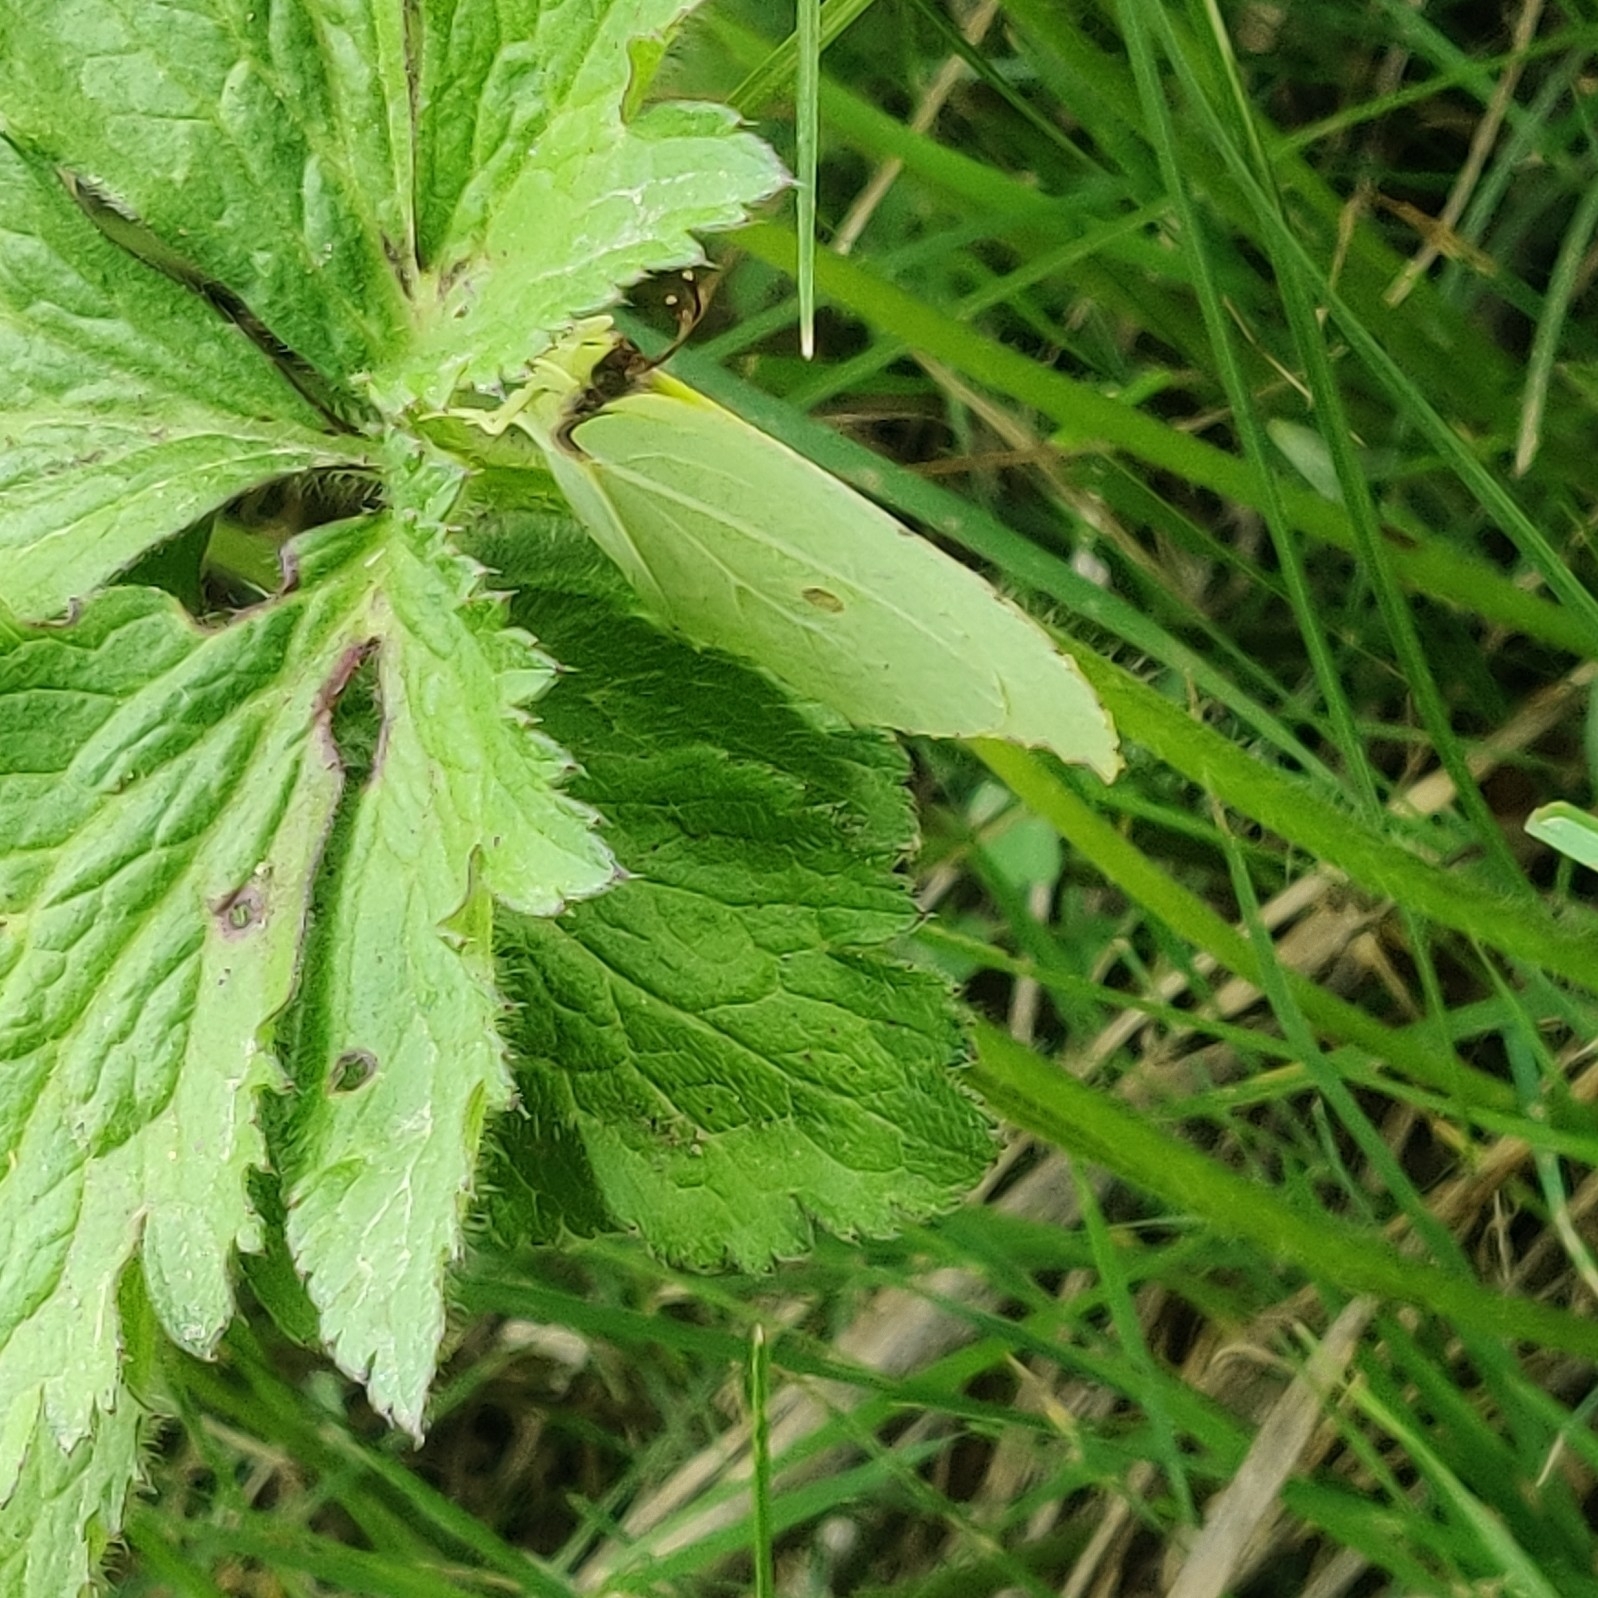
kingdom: Animalia
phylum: Arthropoda
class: Insecta
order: Lepidoptera
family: Pieridae
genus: Gonepteryx
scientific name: Gonepteryx
